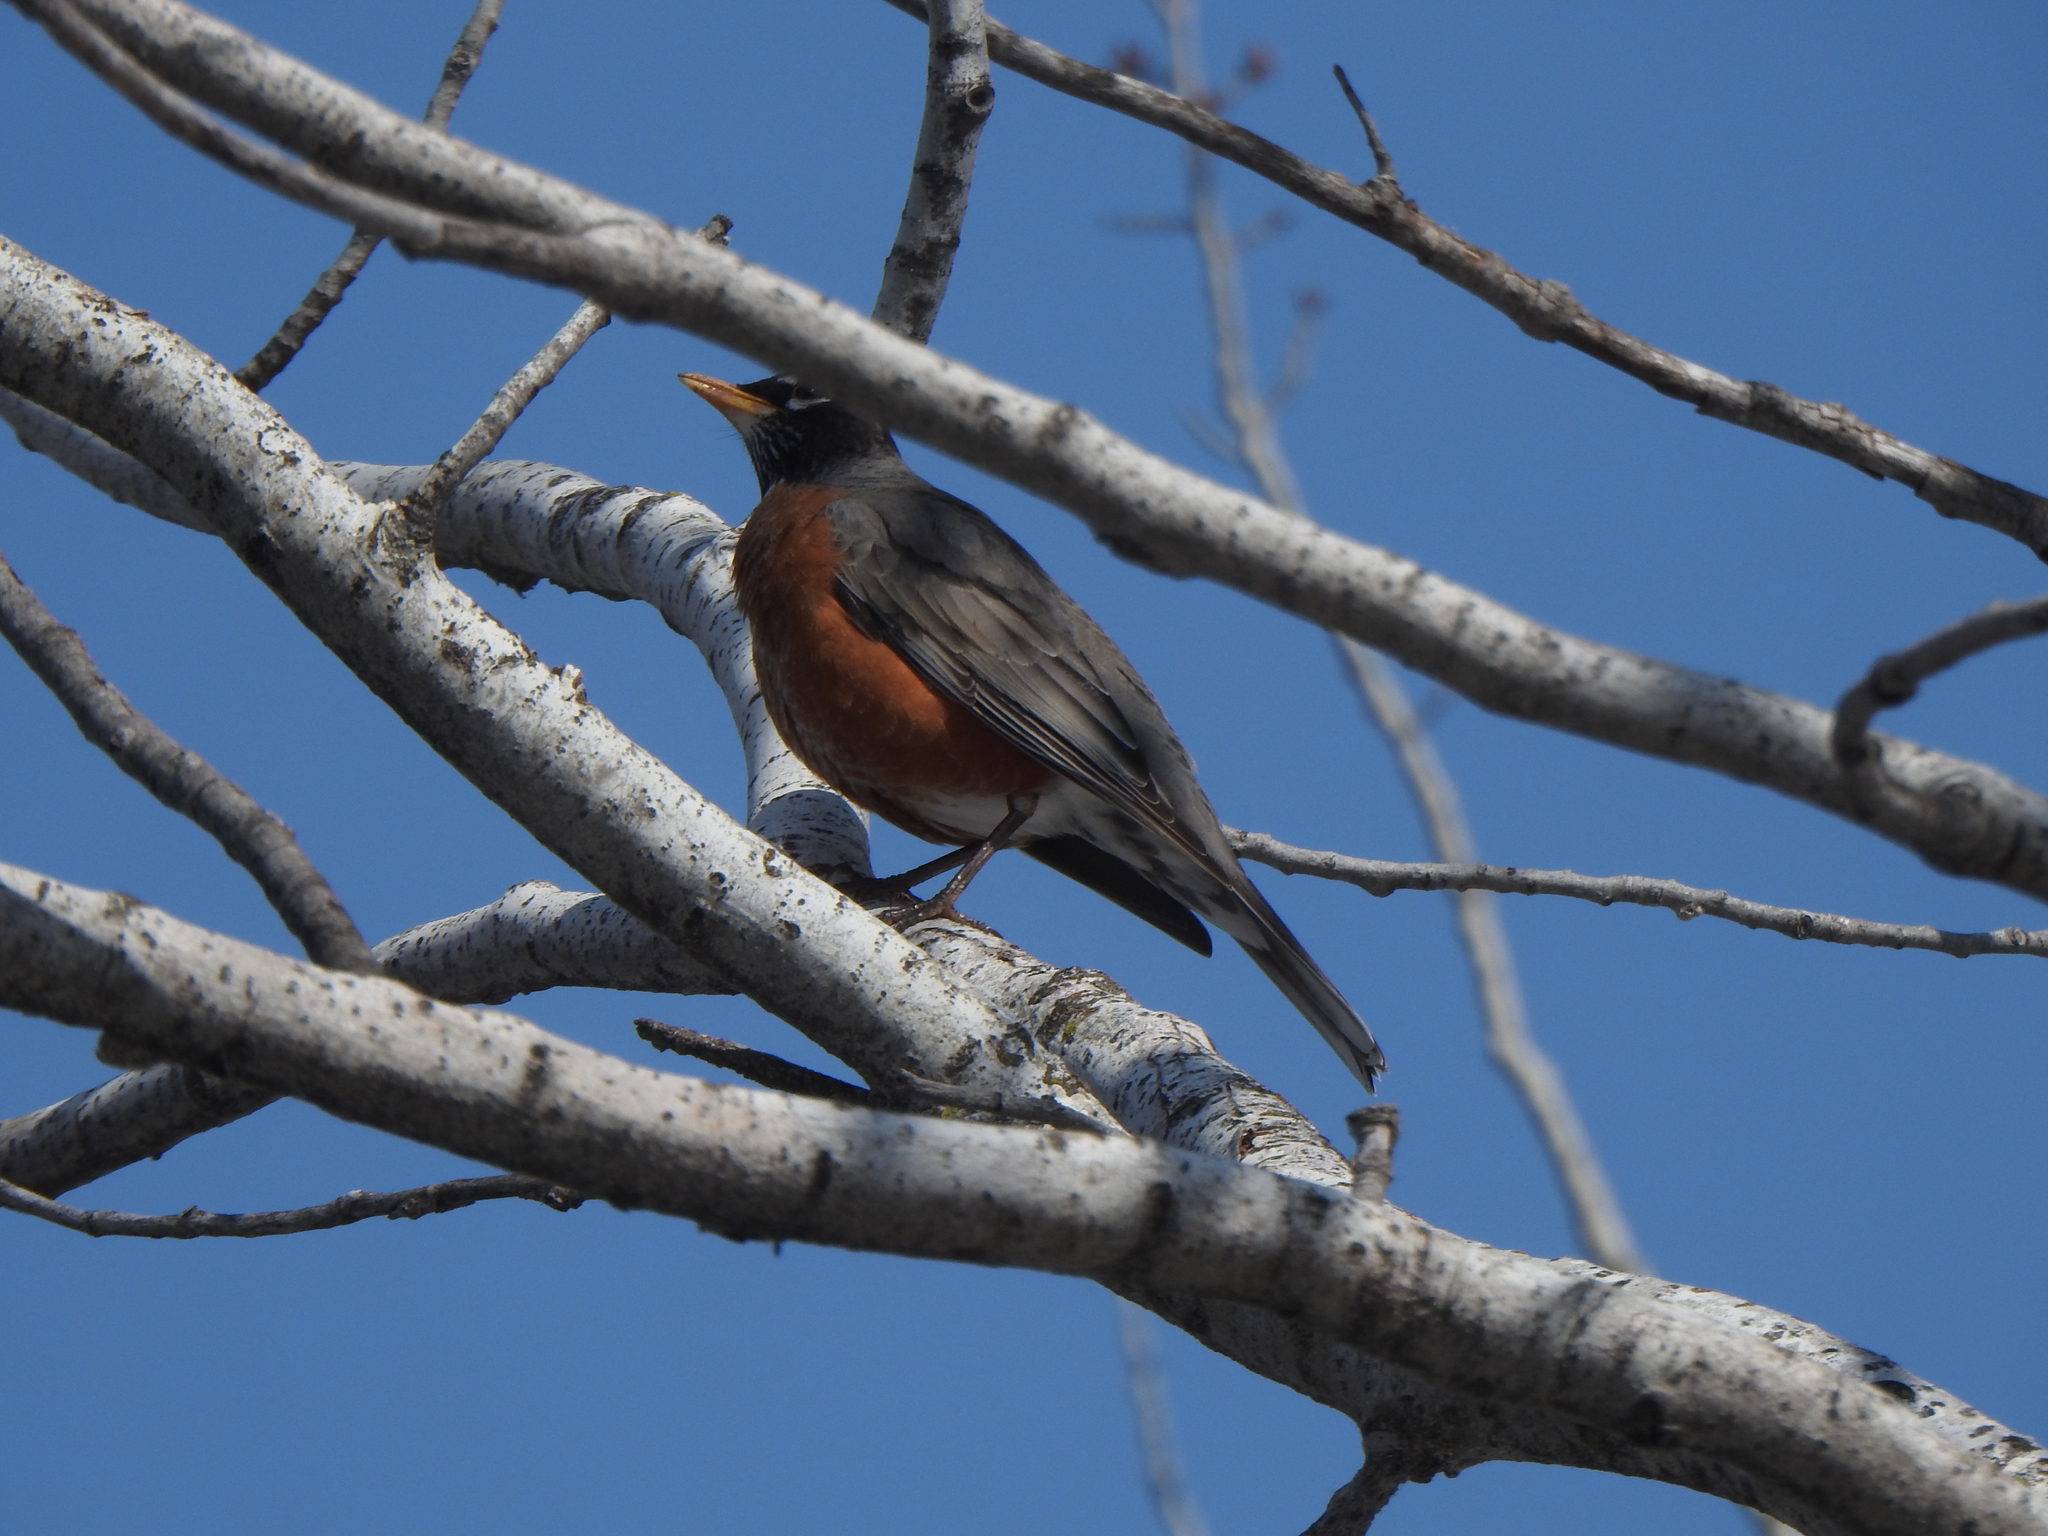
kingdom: Animalia
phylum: Chordata
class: Aves
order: Passeriformes
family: Turdidae
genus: Turdus
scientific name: Turdus migratorius
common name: American robin
